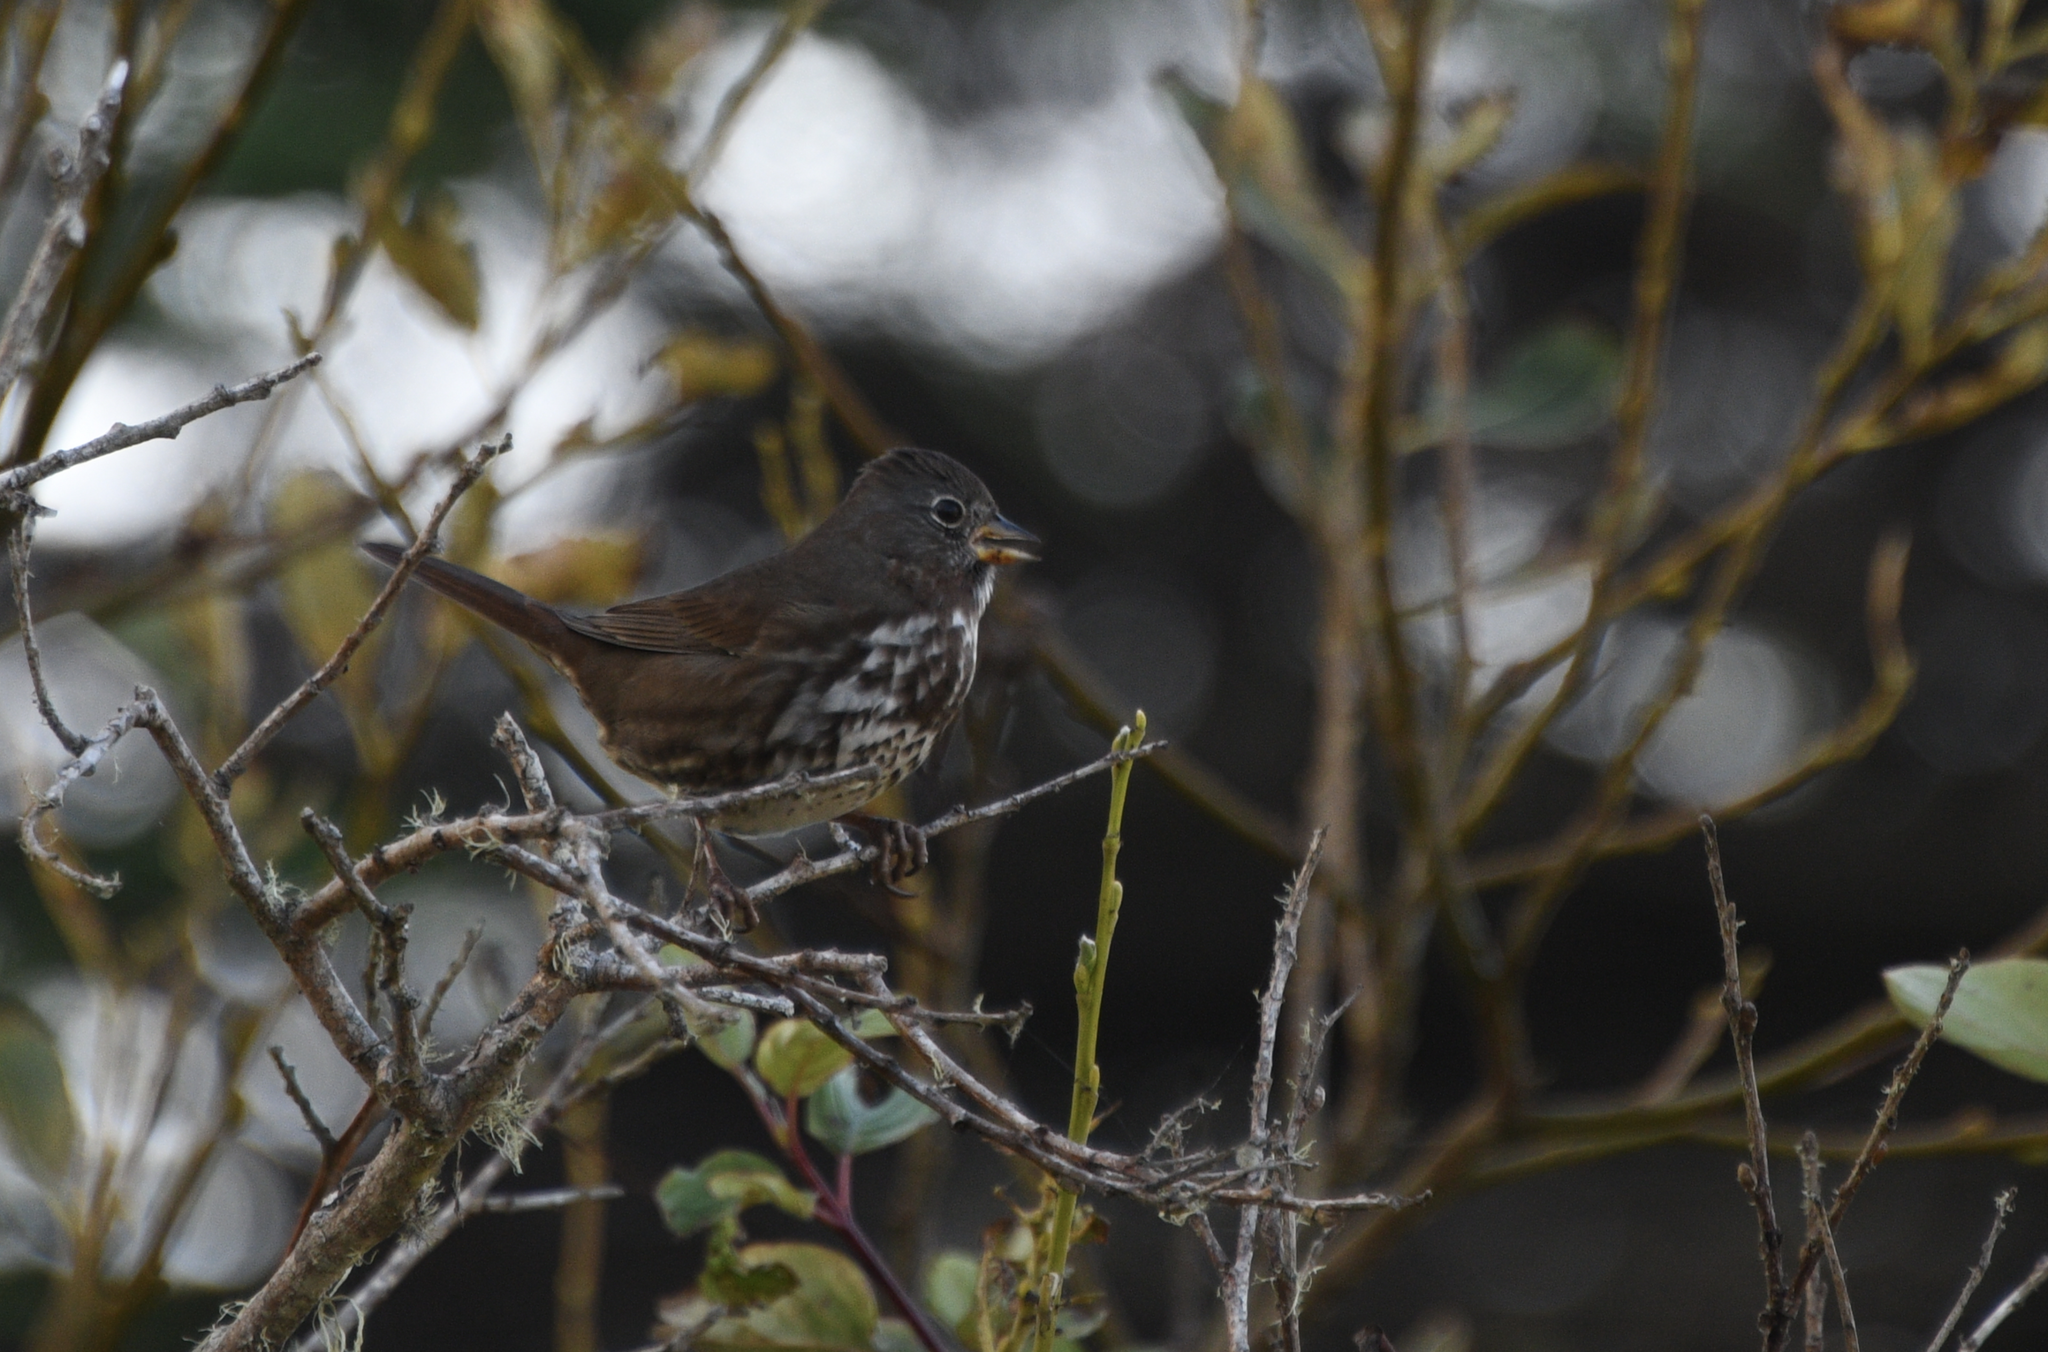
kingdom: Animalia
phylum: Chordata
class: Aves
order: Passeriformes
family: Passerellidae
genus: Passerella
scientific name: Passerella iliaca
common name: Fox sparrow
